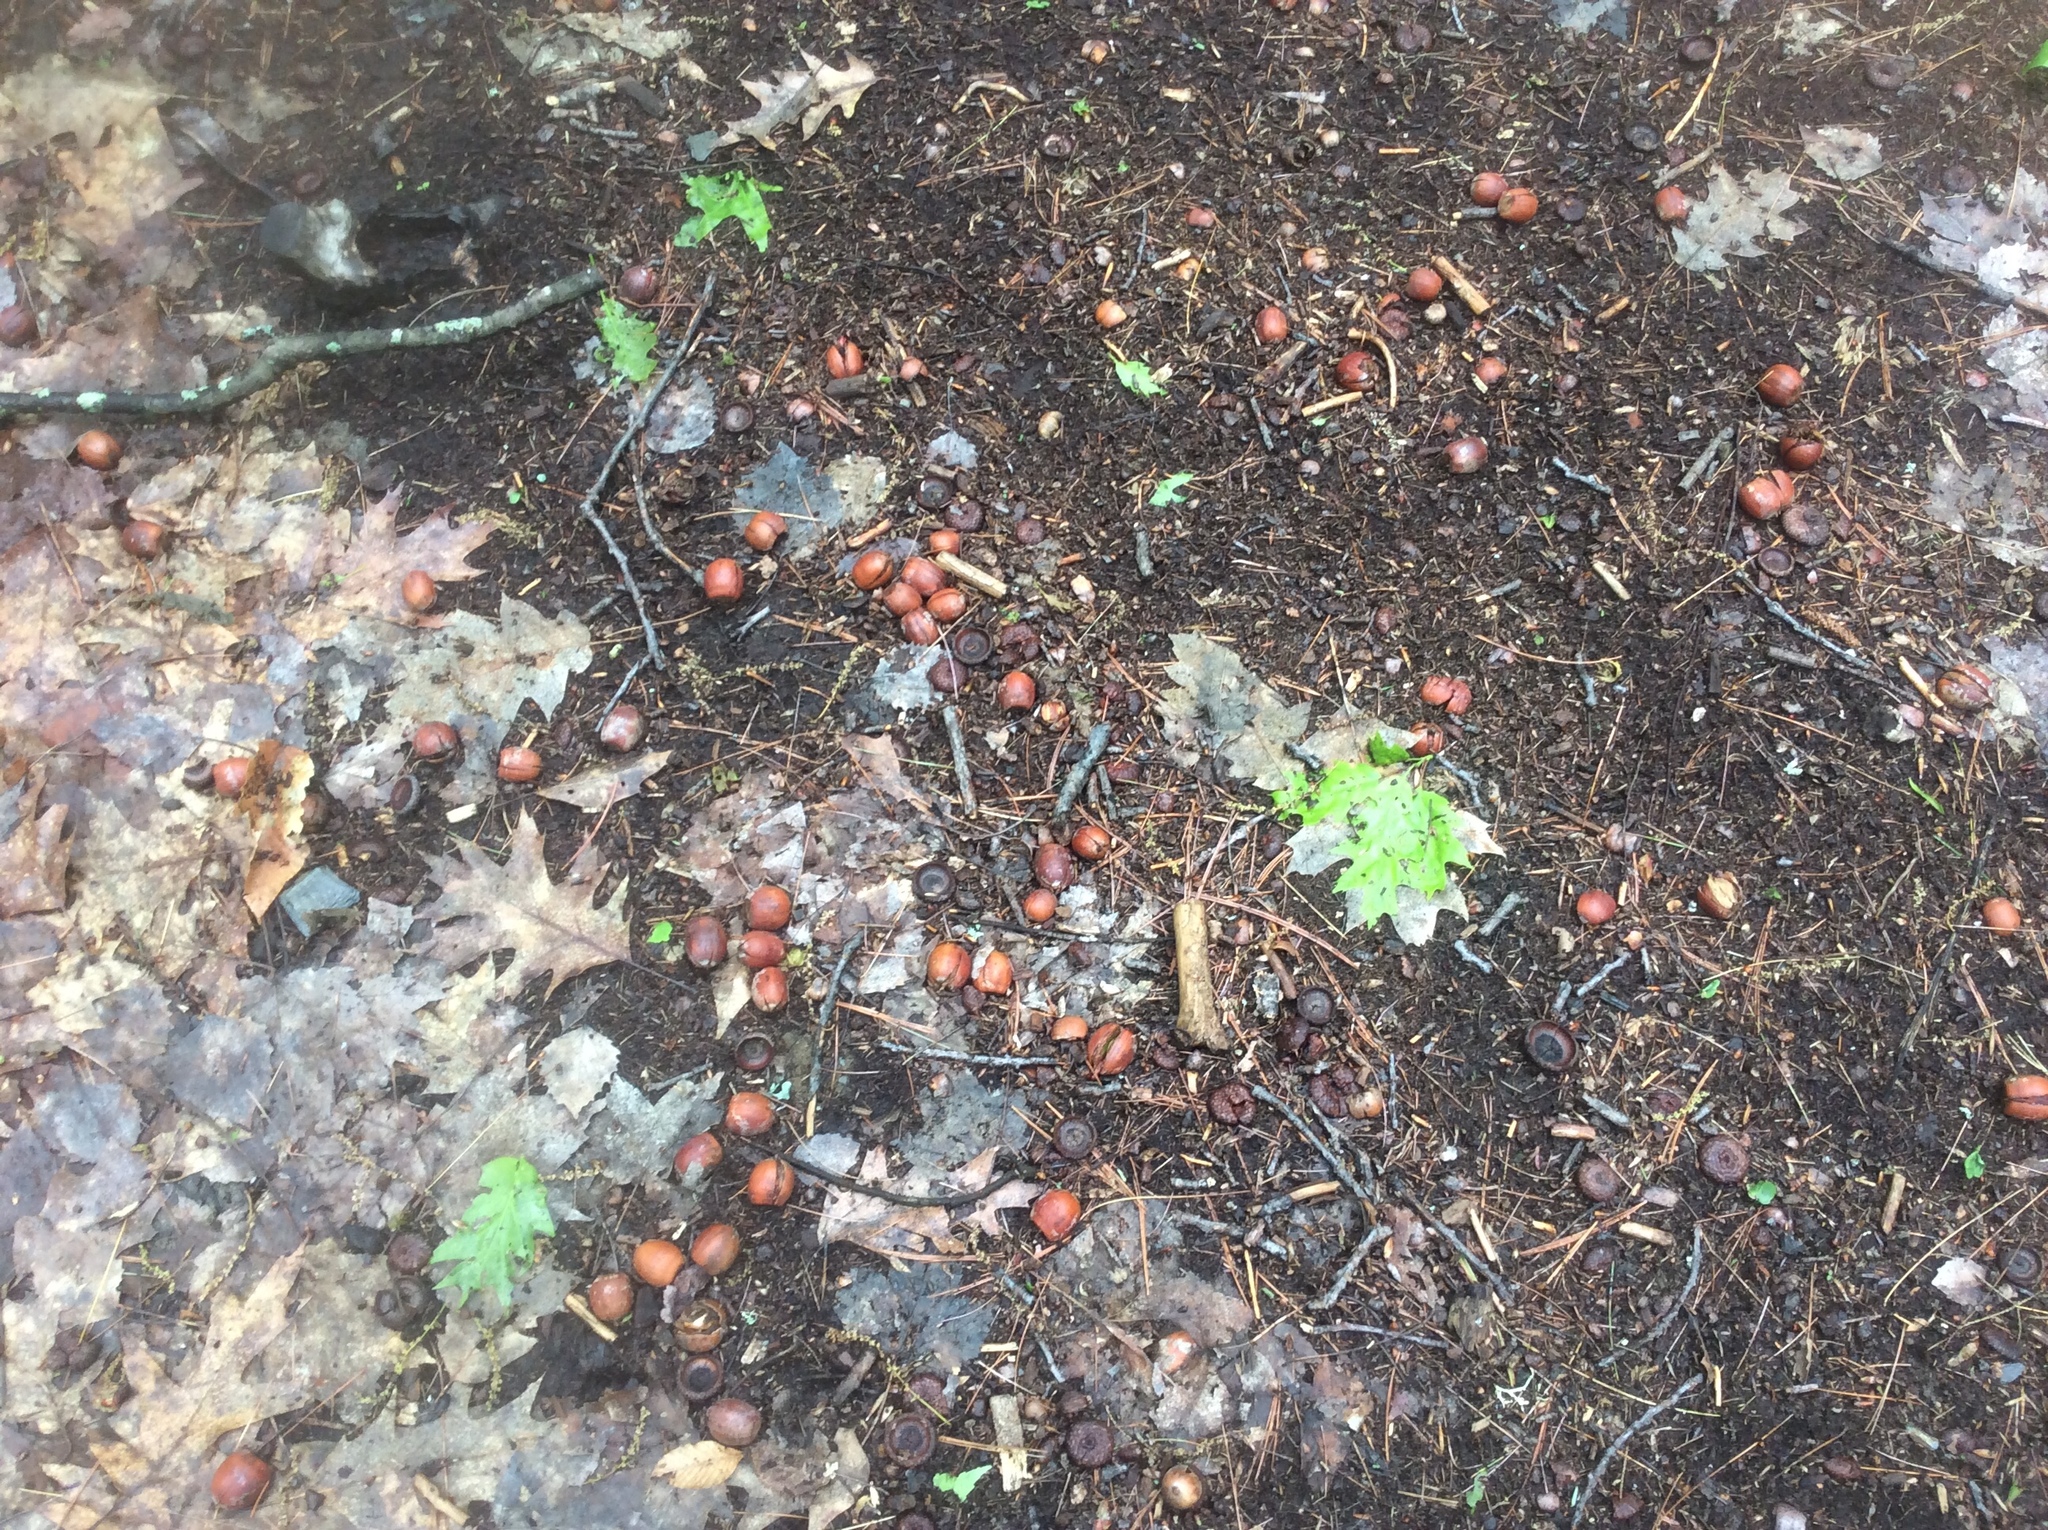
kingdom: Plantae
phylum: Tracheophyta
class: Magnoliopsida
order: Fagales
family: Fagaceae
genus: Quercus
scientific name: Quercus rubra
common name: Red oak
